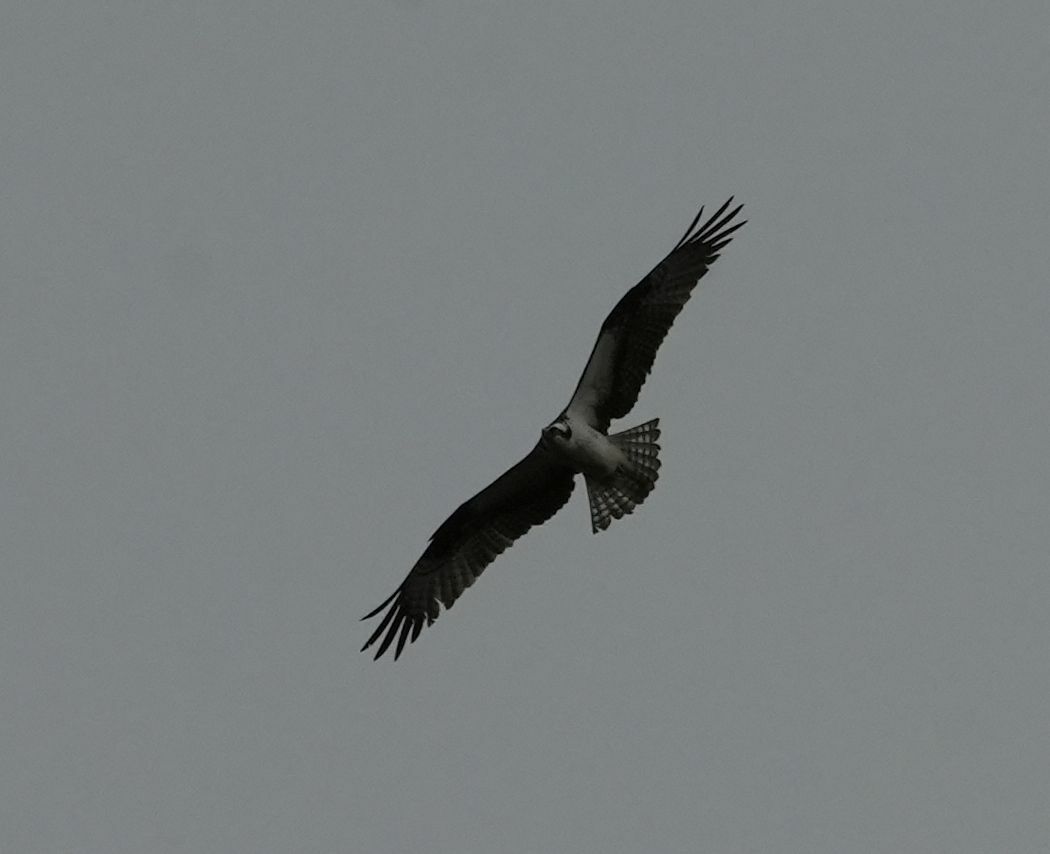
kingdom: Animalia
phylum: Chordata
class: Aves
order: Accipitriformes
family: Pandionidae
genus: Pandion
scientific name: Pandion haliaetus
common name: Osprey
